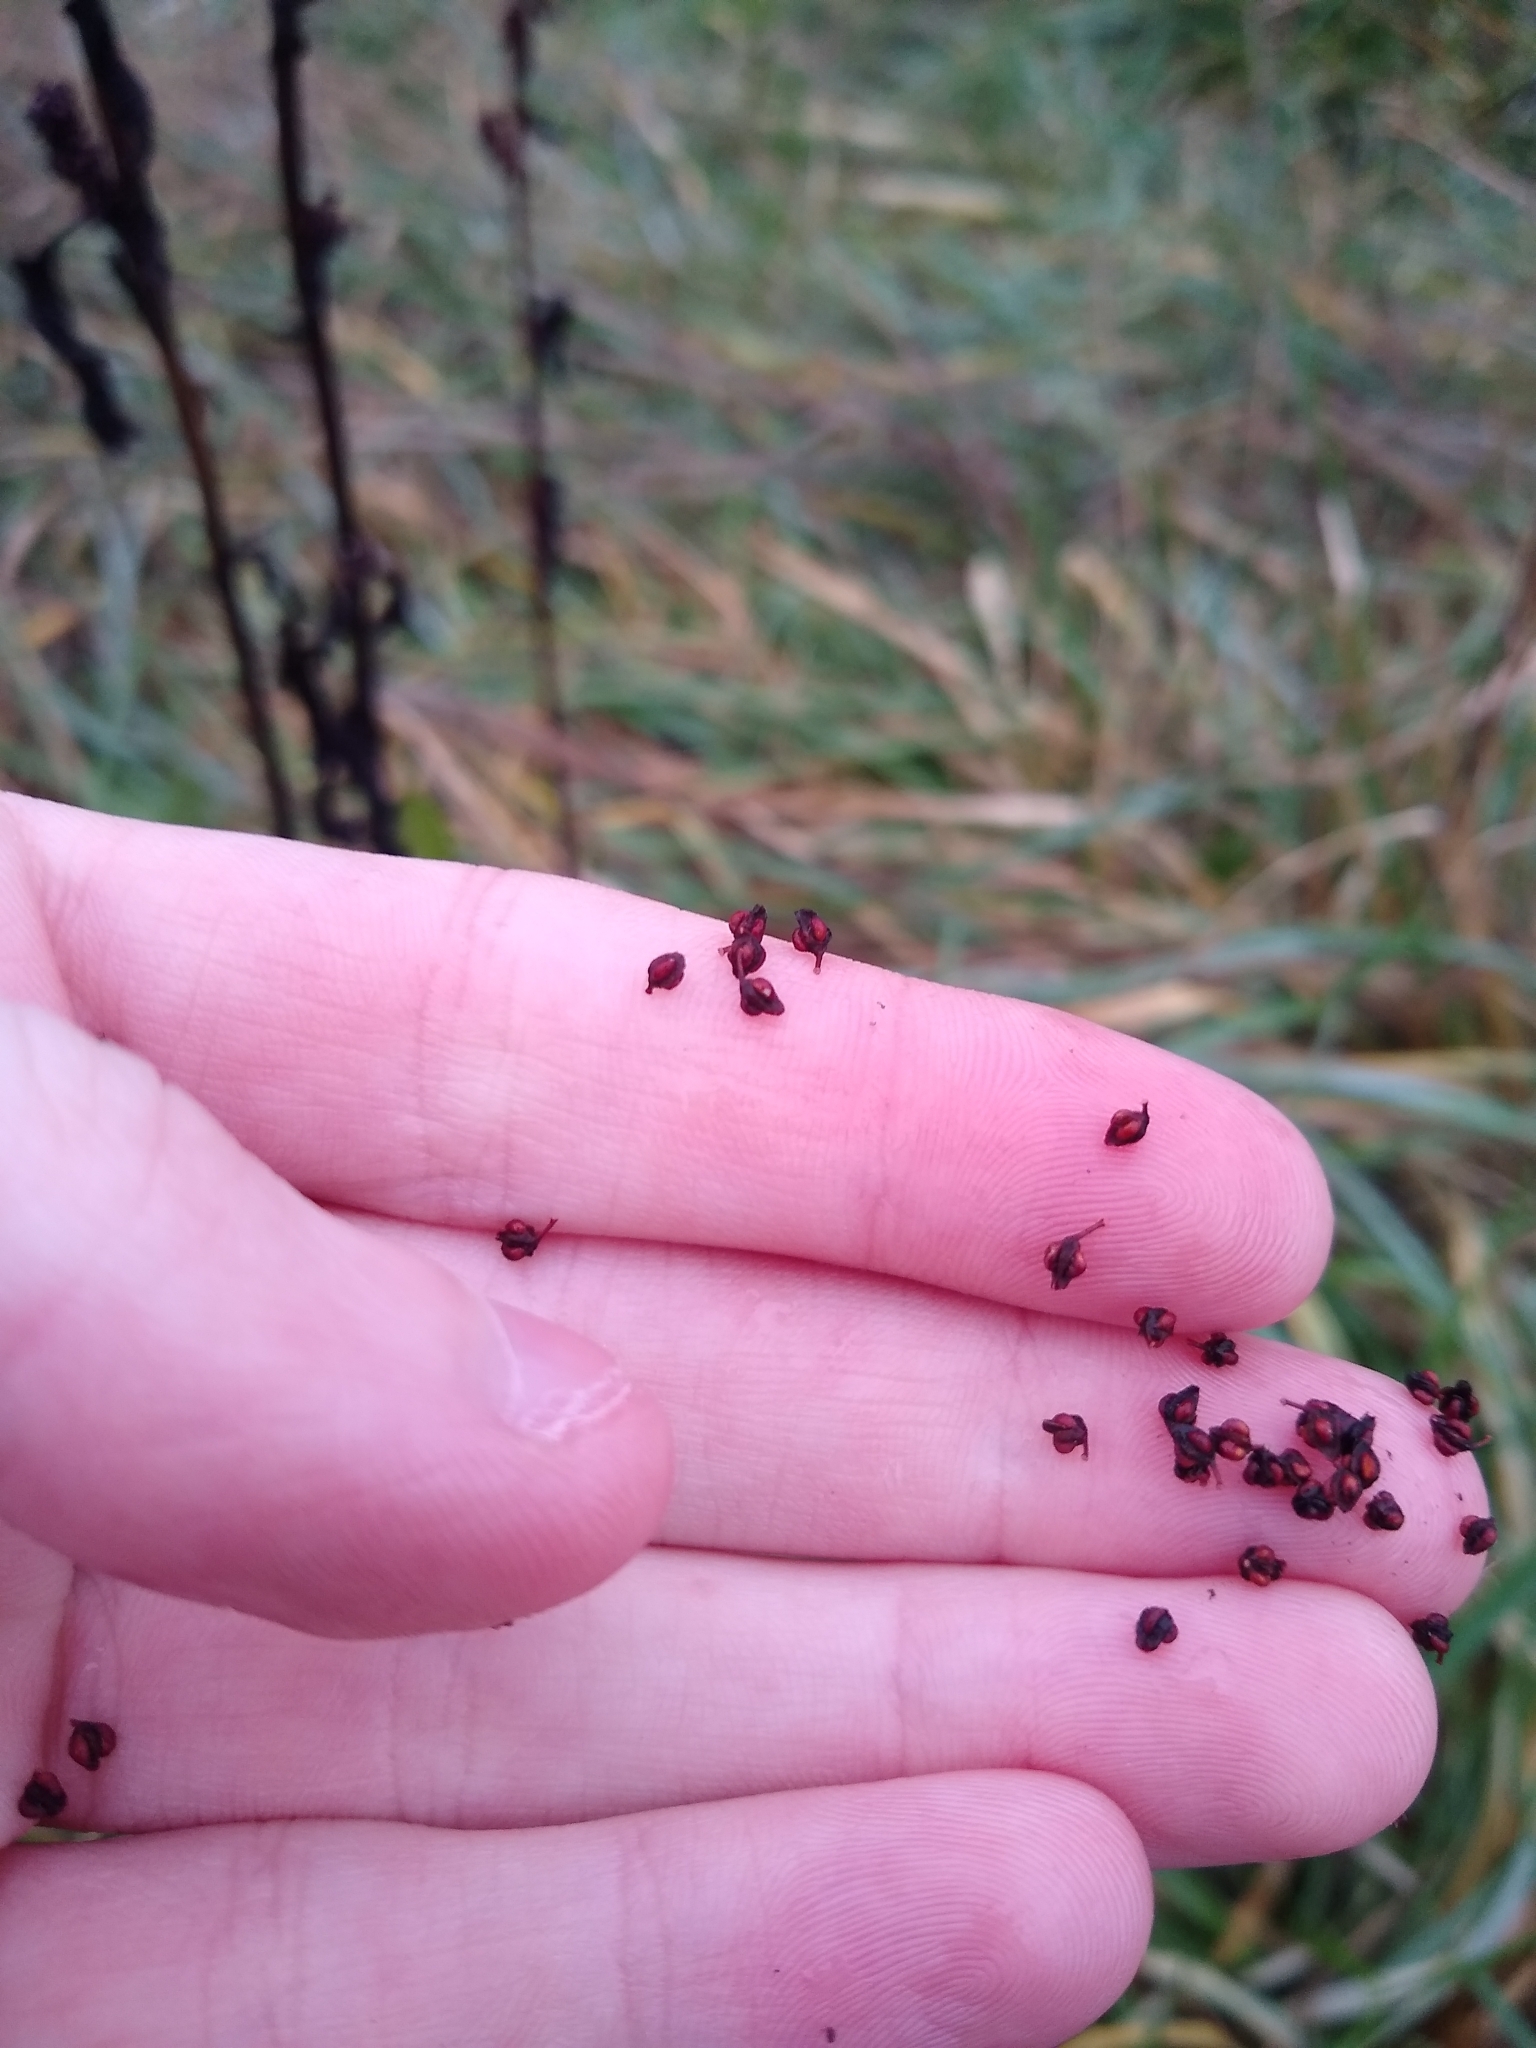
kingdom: Plantae
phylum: Tracheophyta
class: Magnoliopsida
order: Caryophyllales
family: Polygonaceae
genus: Rumex
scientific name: Rumex conglomeratus
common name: Clustered dock
